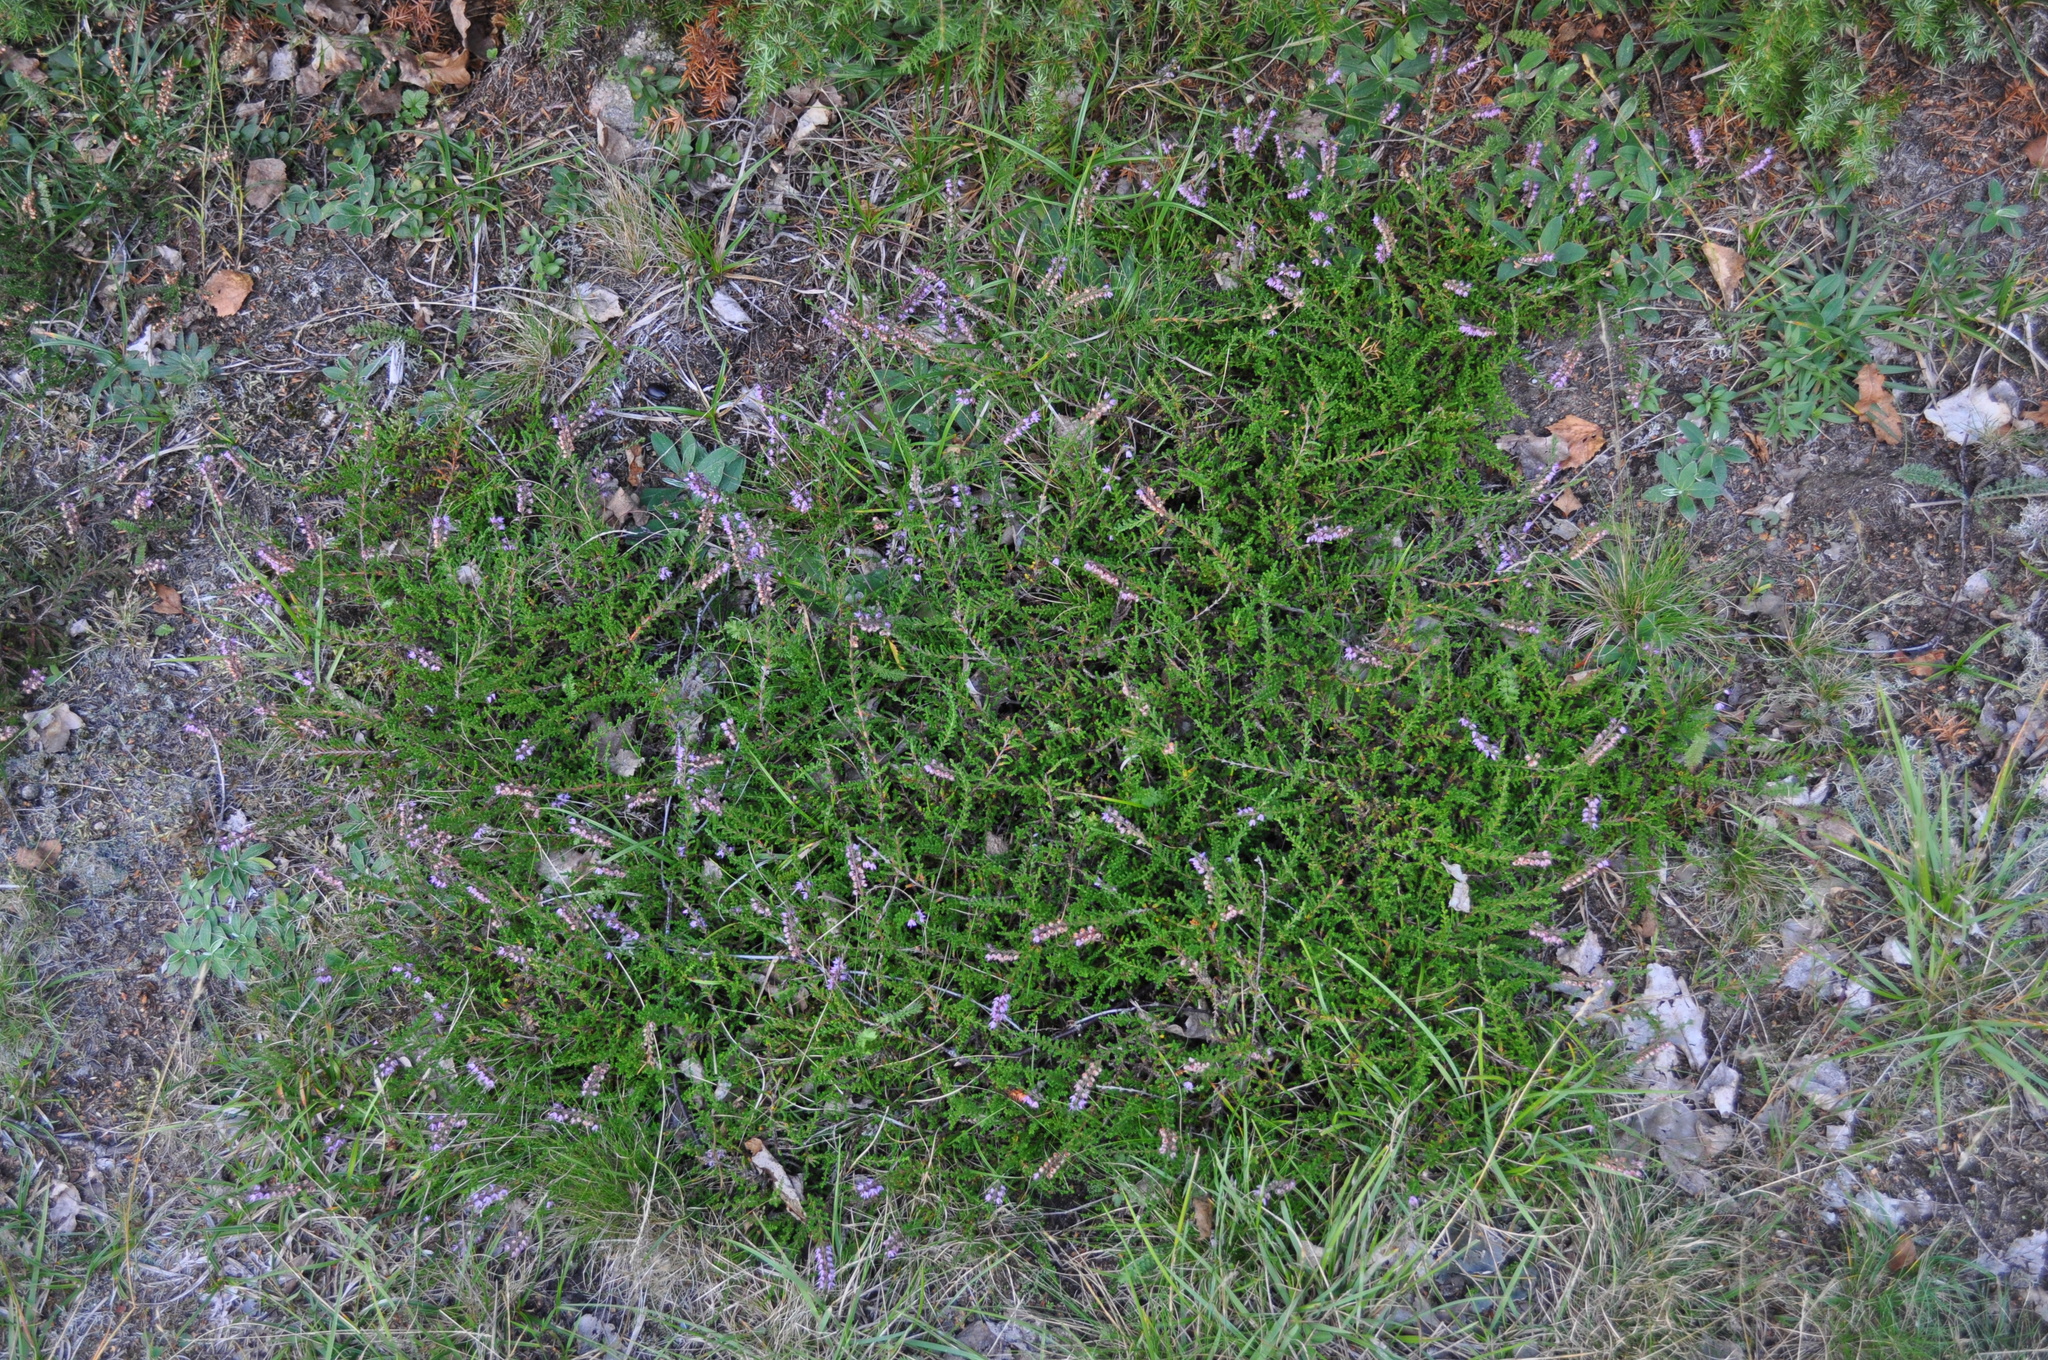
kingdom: Plantae
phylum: Tracheophyta
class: Magnoliopsida
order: Ericales
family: Ericaceae
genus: Calluna
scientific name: Calluna vulgaris
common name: Heather
